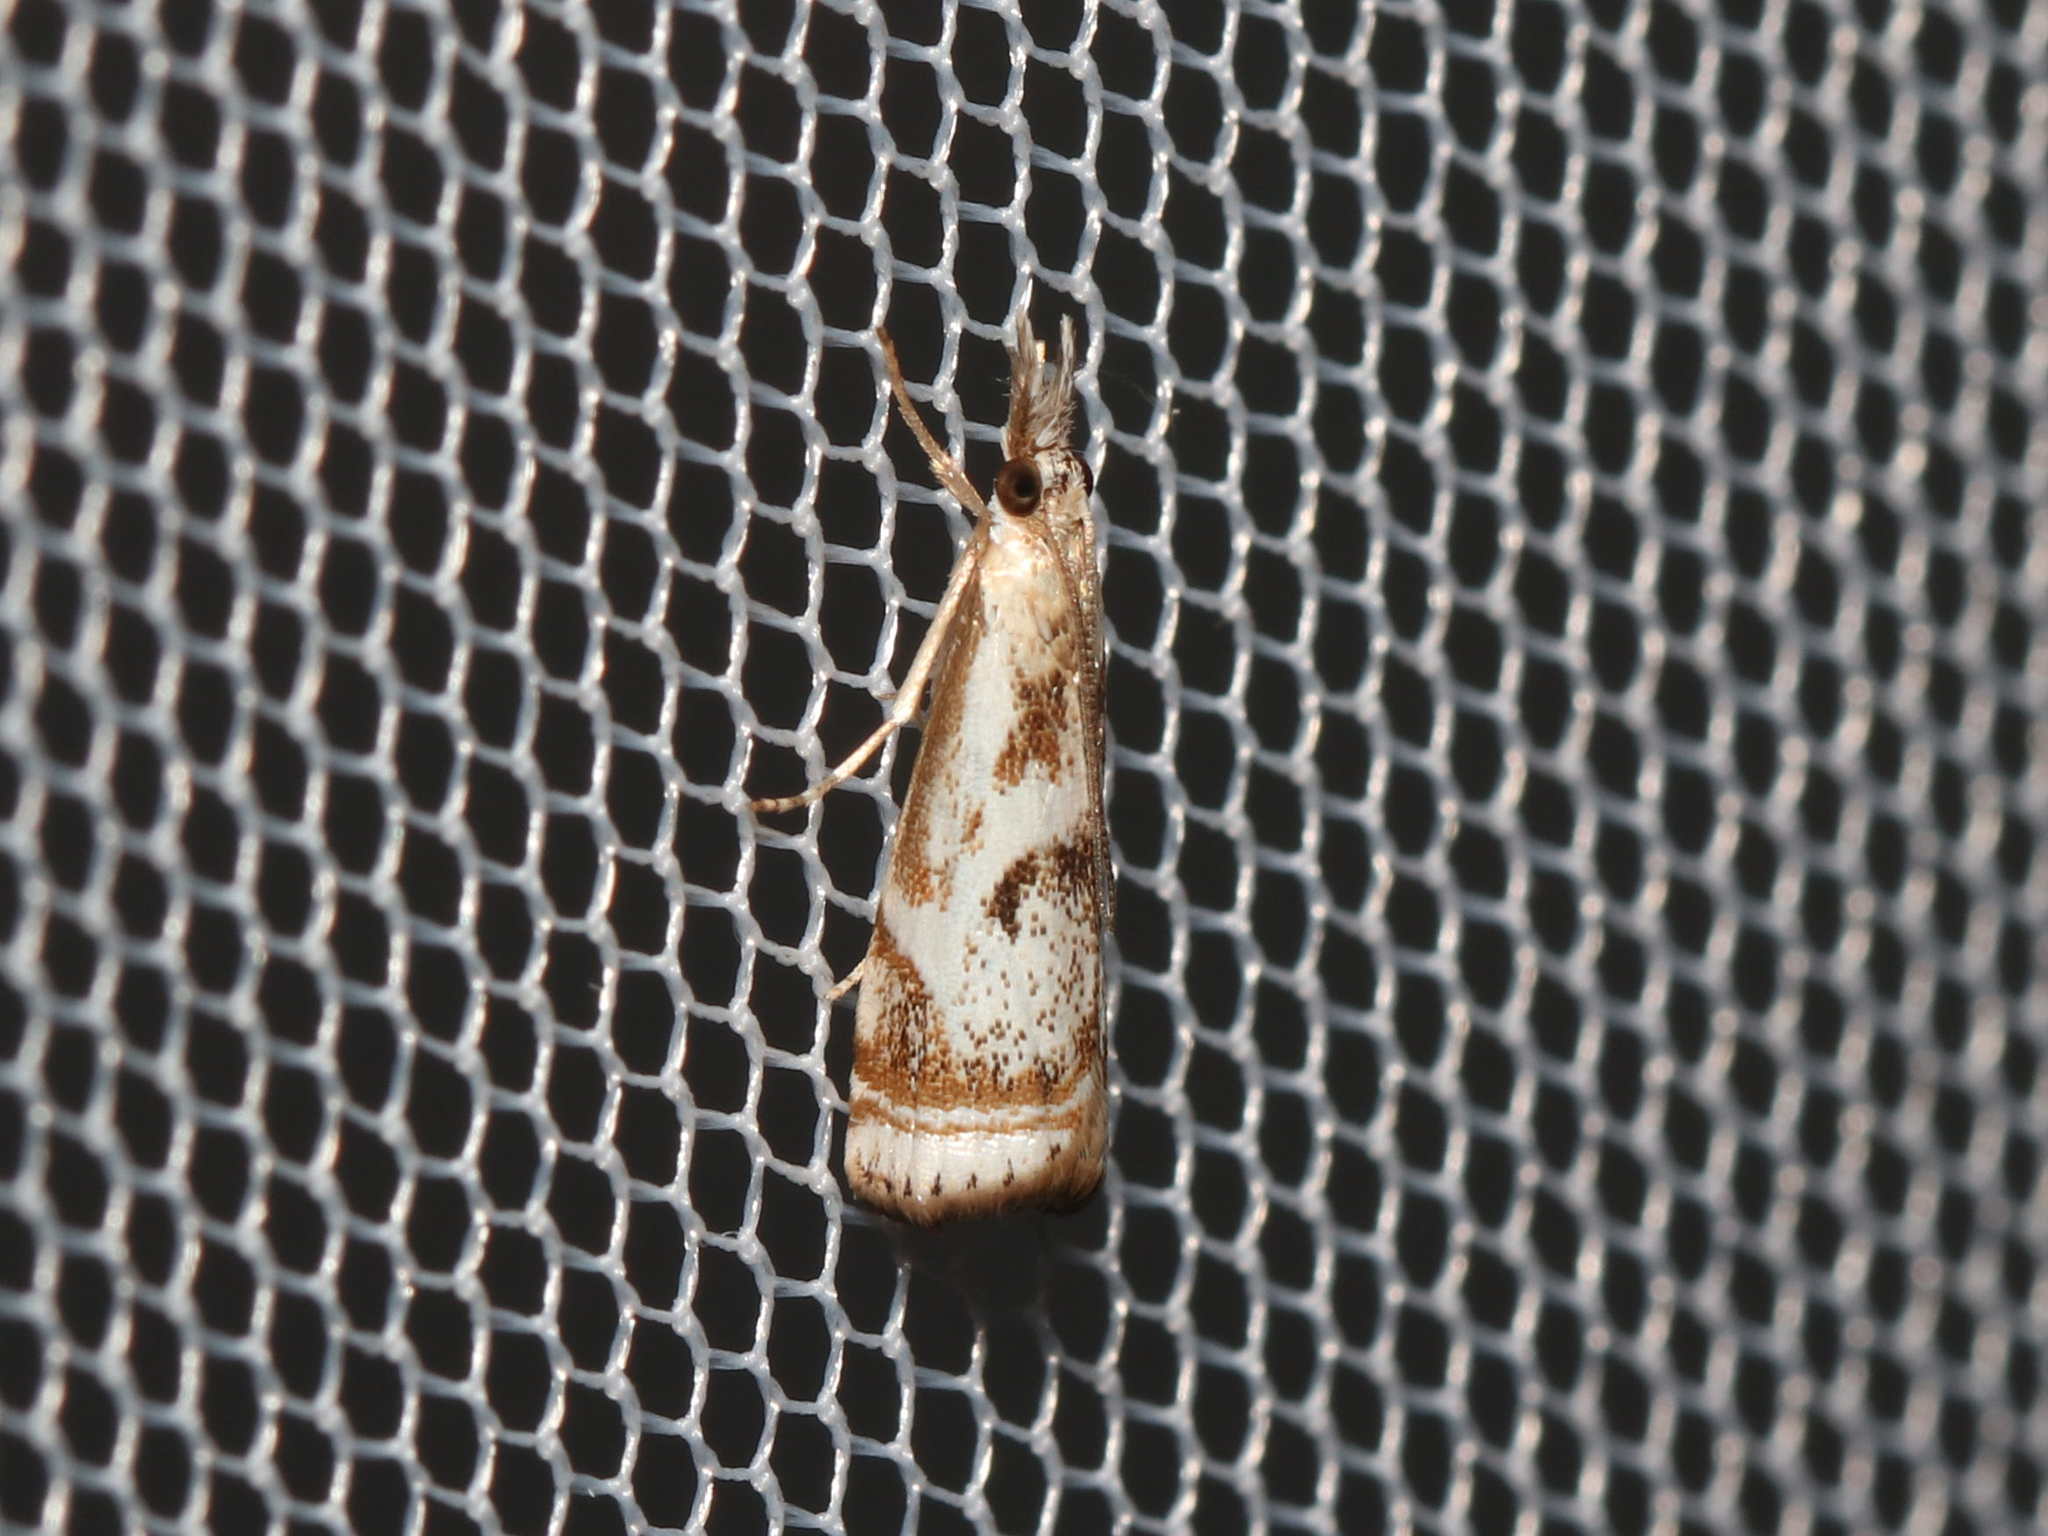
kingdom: Animalia
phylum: Arthropoda
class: Insecta
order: Lepidoptera
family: Crambidae
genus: Microcrambus
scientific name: Microcrambus elegans
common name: Elegant grass-veneer
